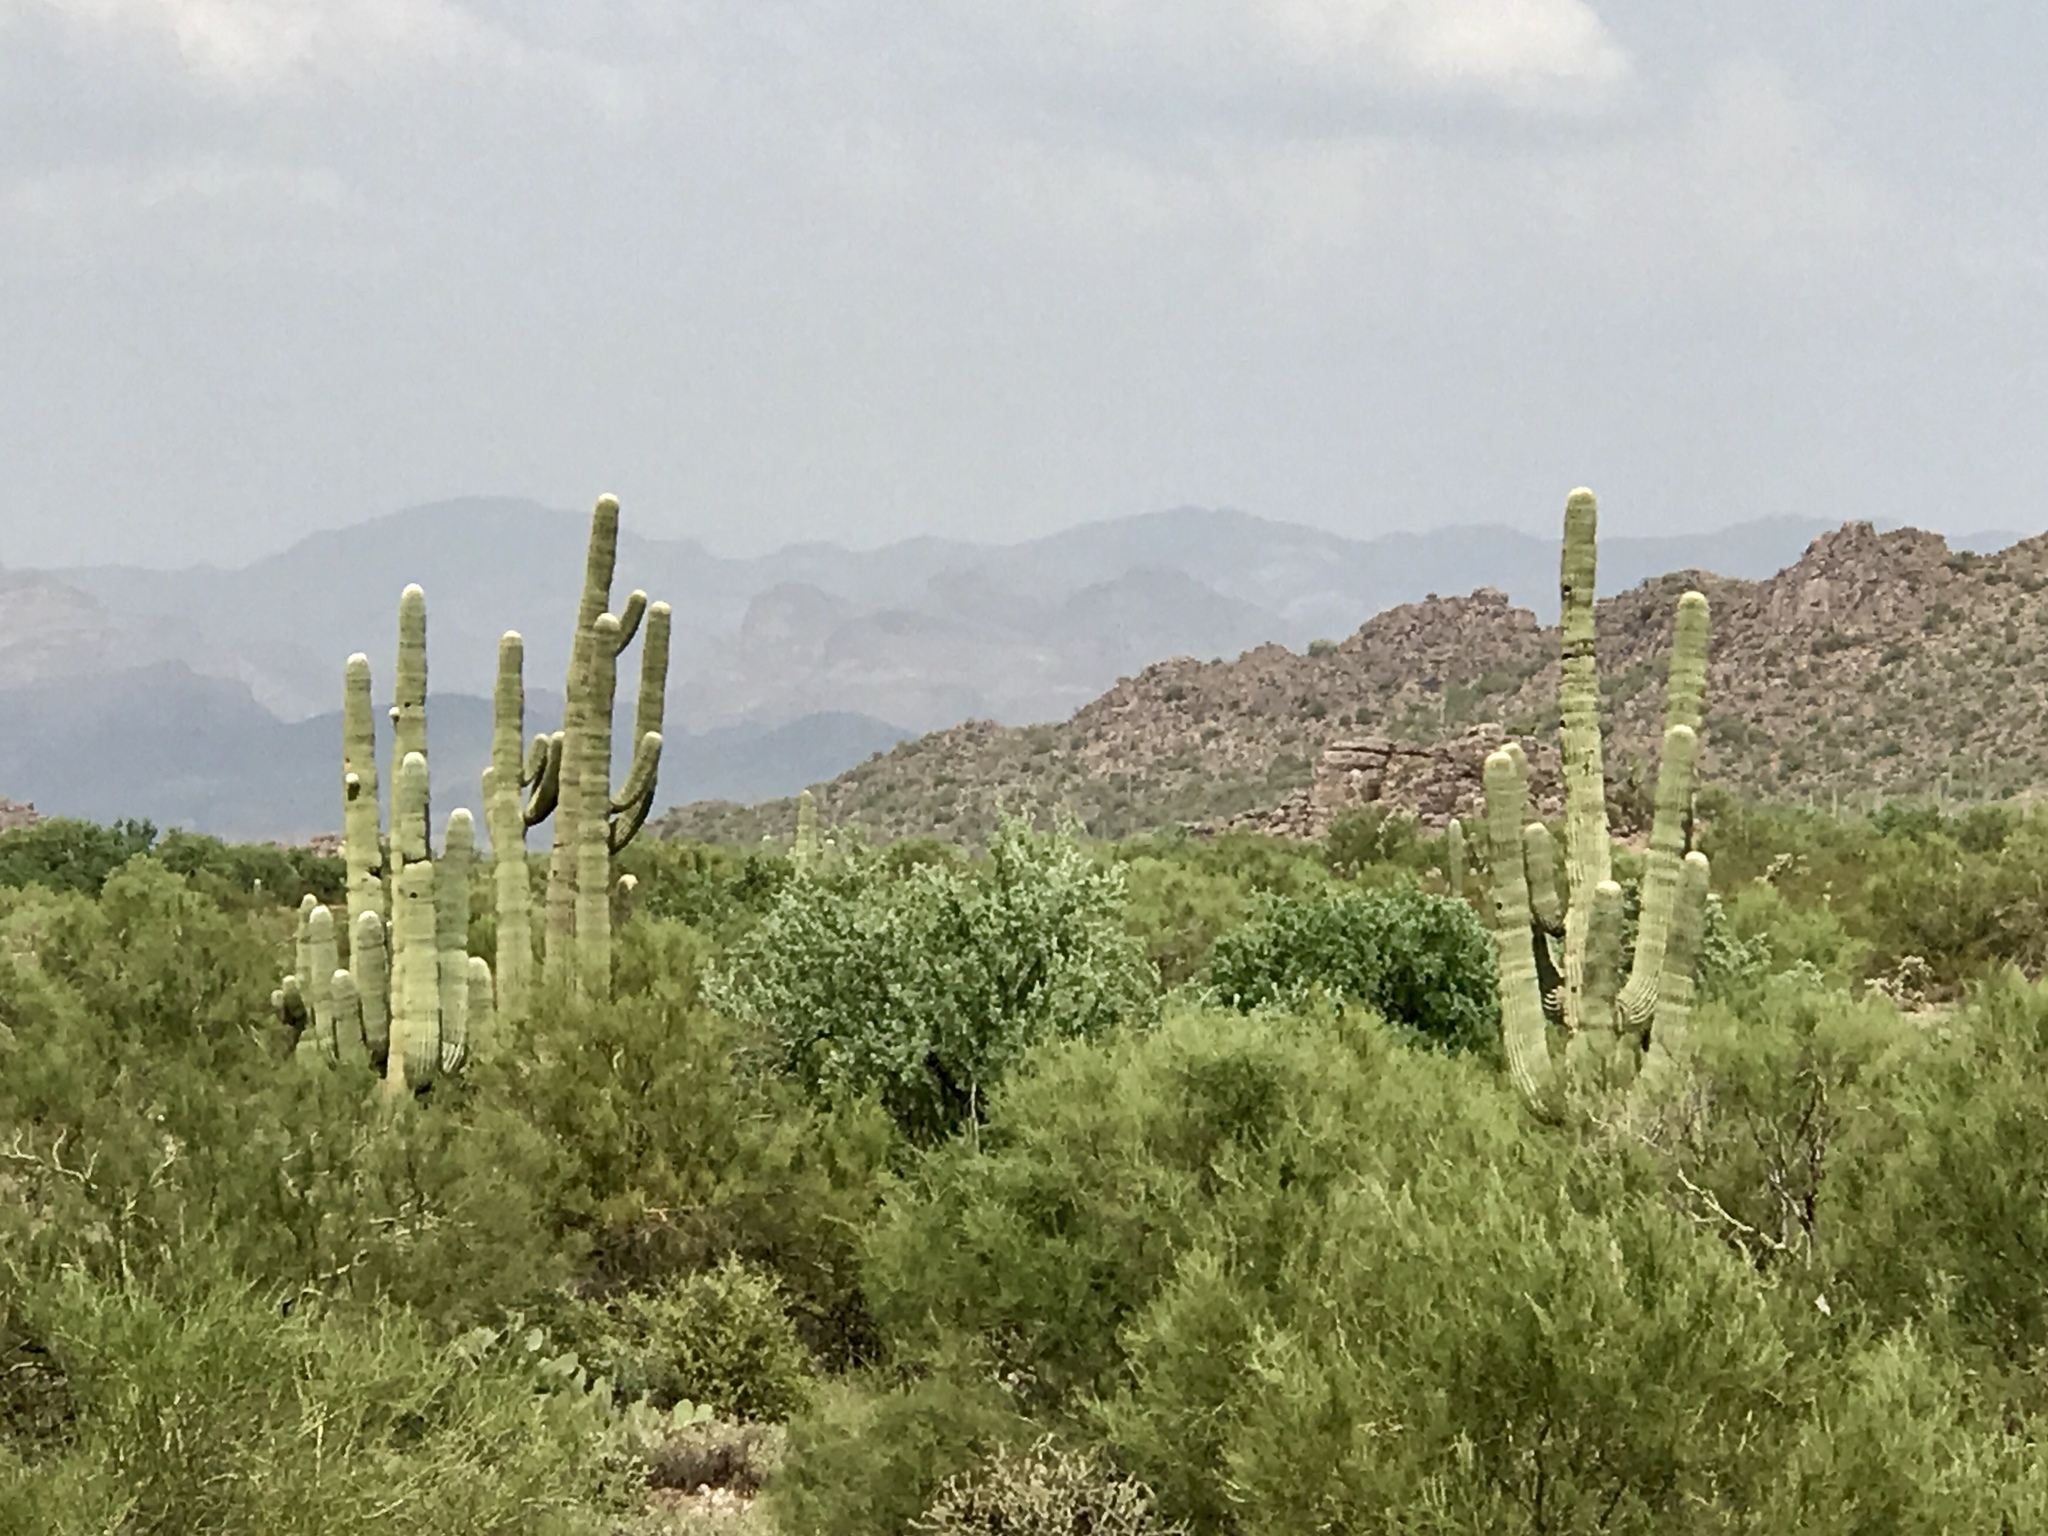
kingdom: Plantae
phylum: Tracheophyta
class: Magnoliopsida
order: Caryophyllales
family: Cactaceae
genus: Carnegiea
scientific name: Carnegiea gigantea
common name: Saguaro
